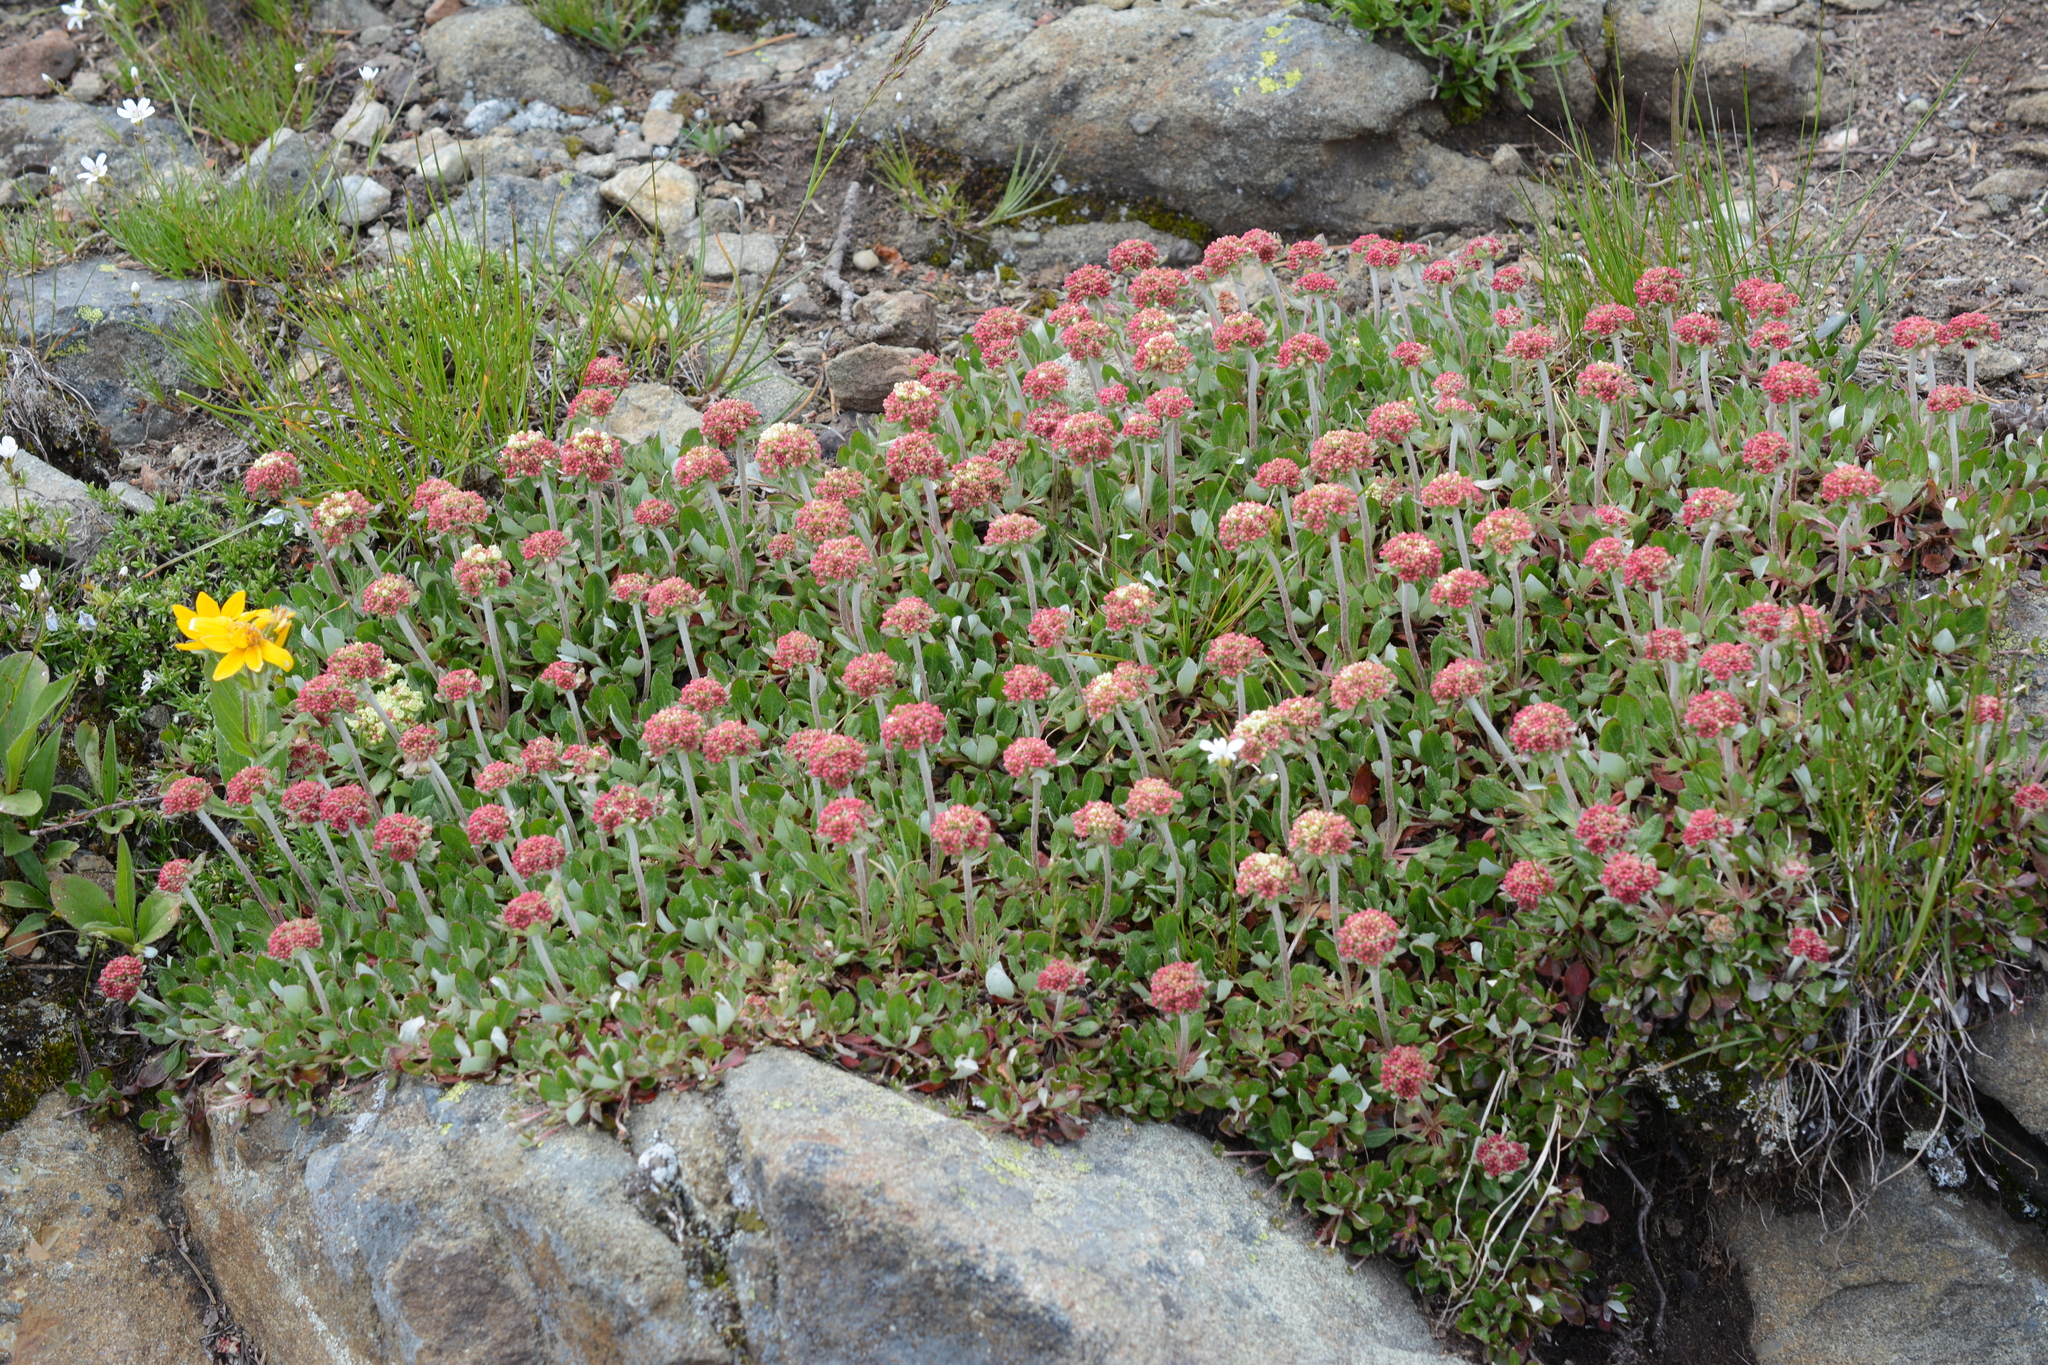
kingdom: Plantae
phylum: Tracheophyta
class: Magnoliopsida
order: Caryophyllales
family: Polygonaceae
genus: Eriogonum
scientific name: Eriogonum umbellatum
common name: Sulfur-buckwheat
